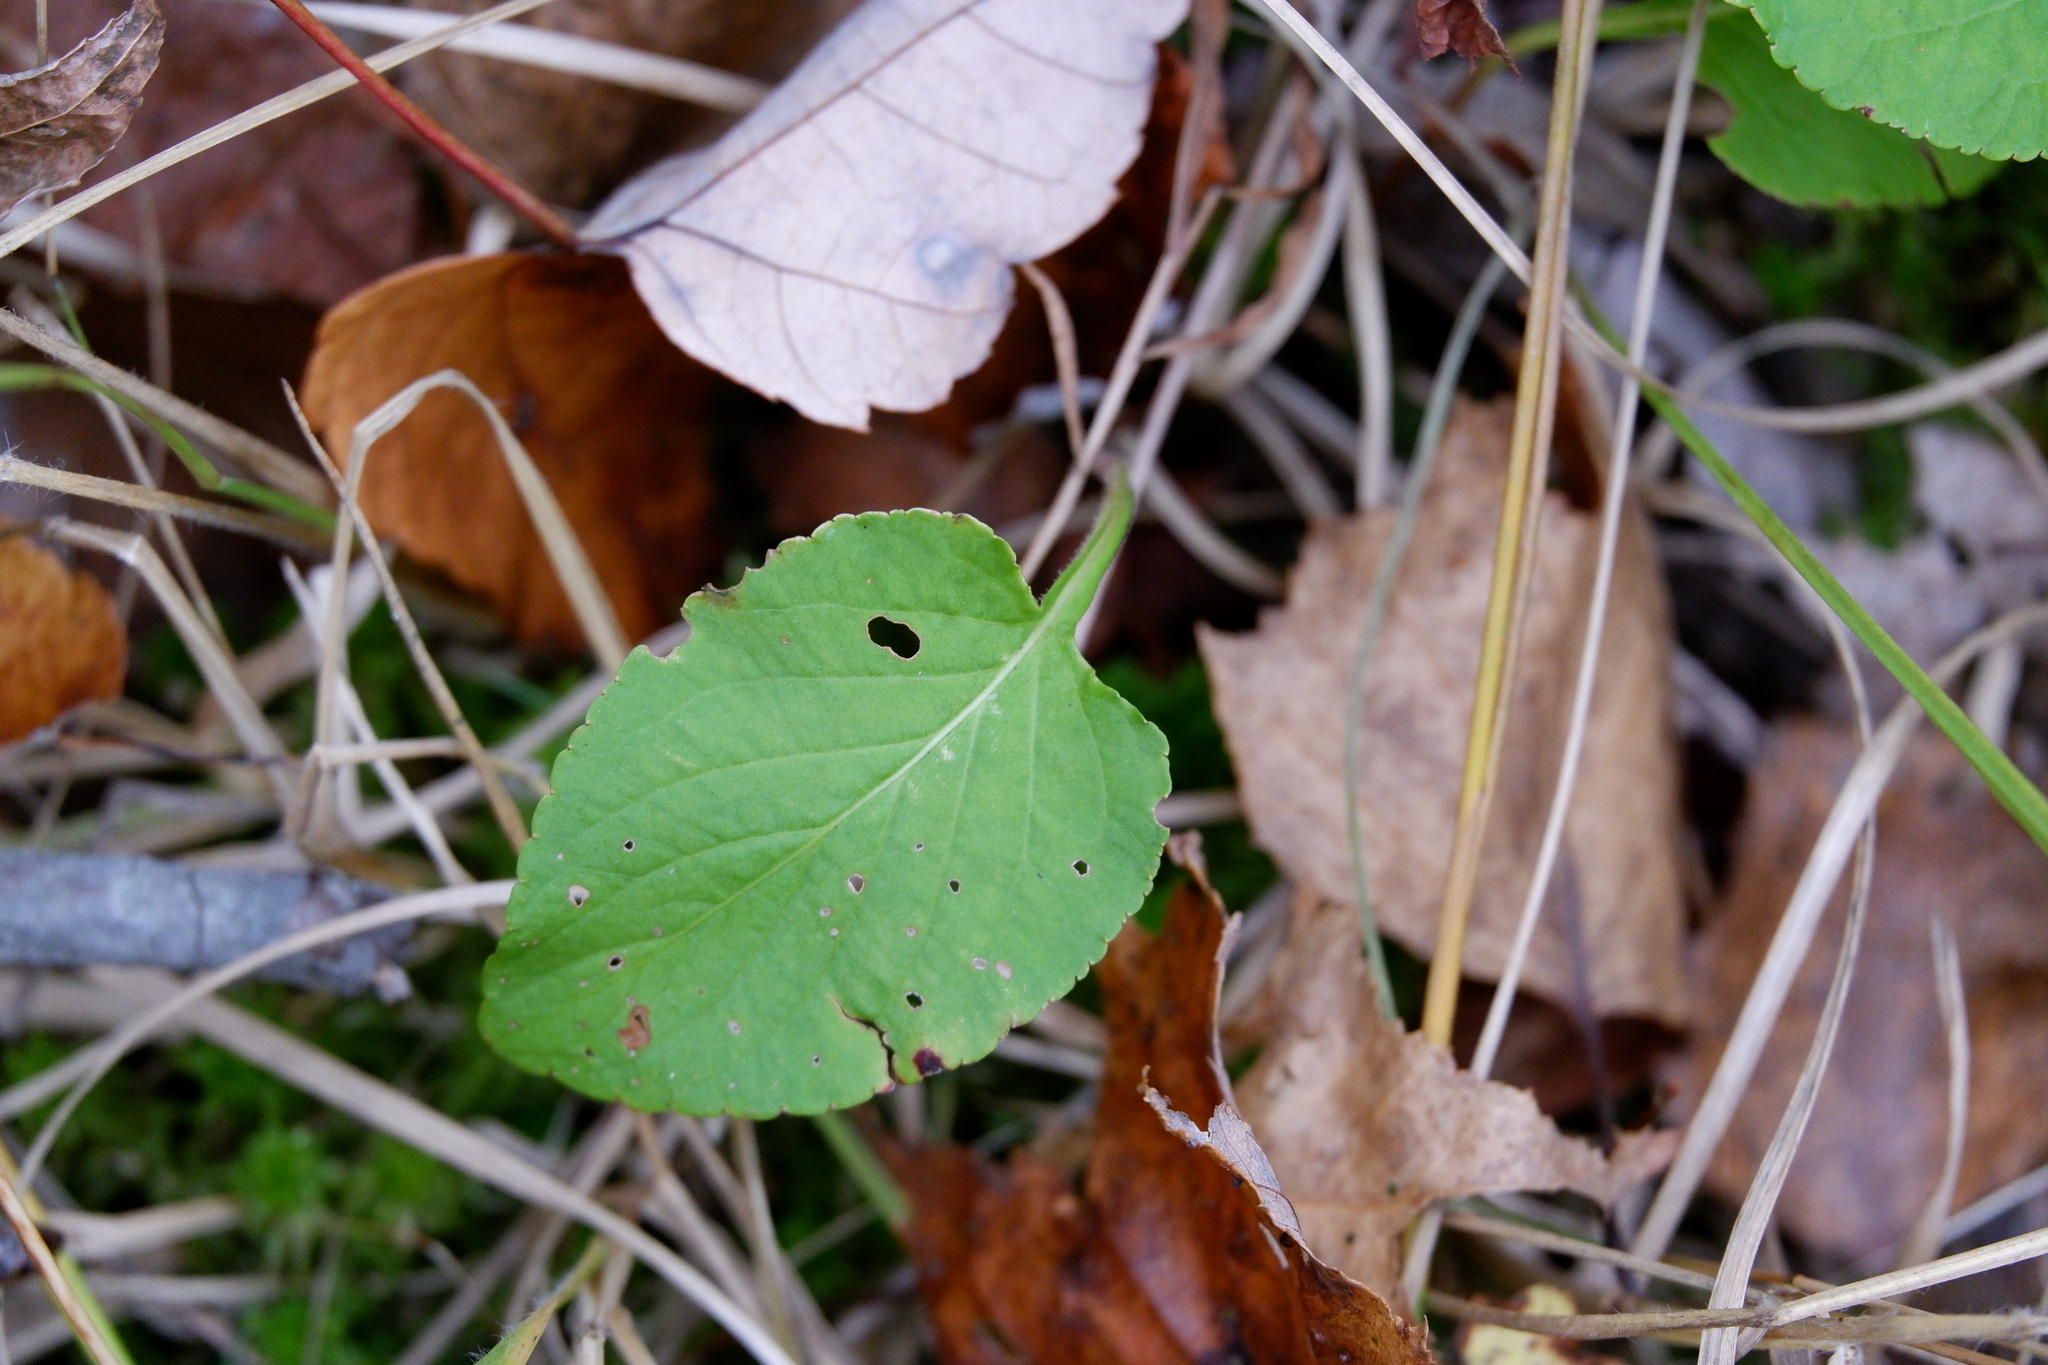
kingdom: Plantae
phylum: Tracheophyta
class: Magnoliopsida
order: Malpighiales
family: Violaceae
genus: Viola
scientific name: Viola primulifolia
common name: Primrose-leaf violet
